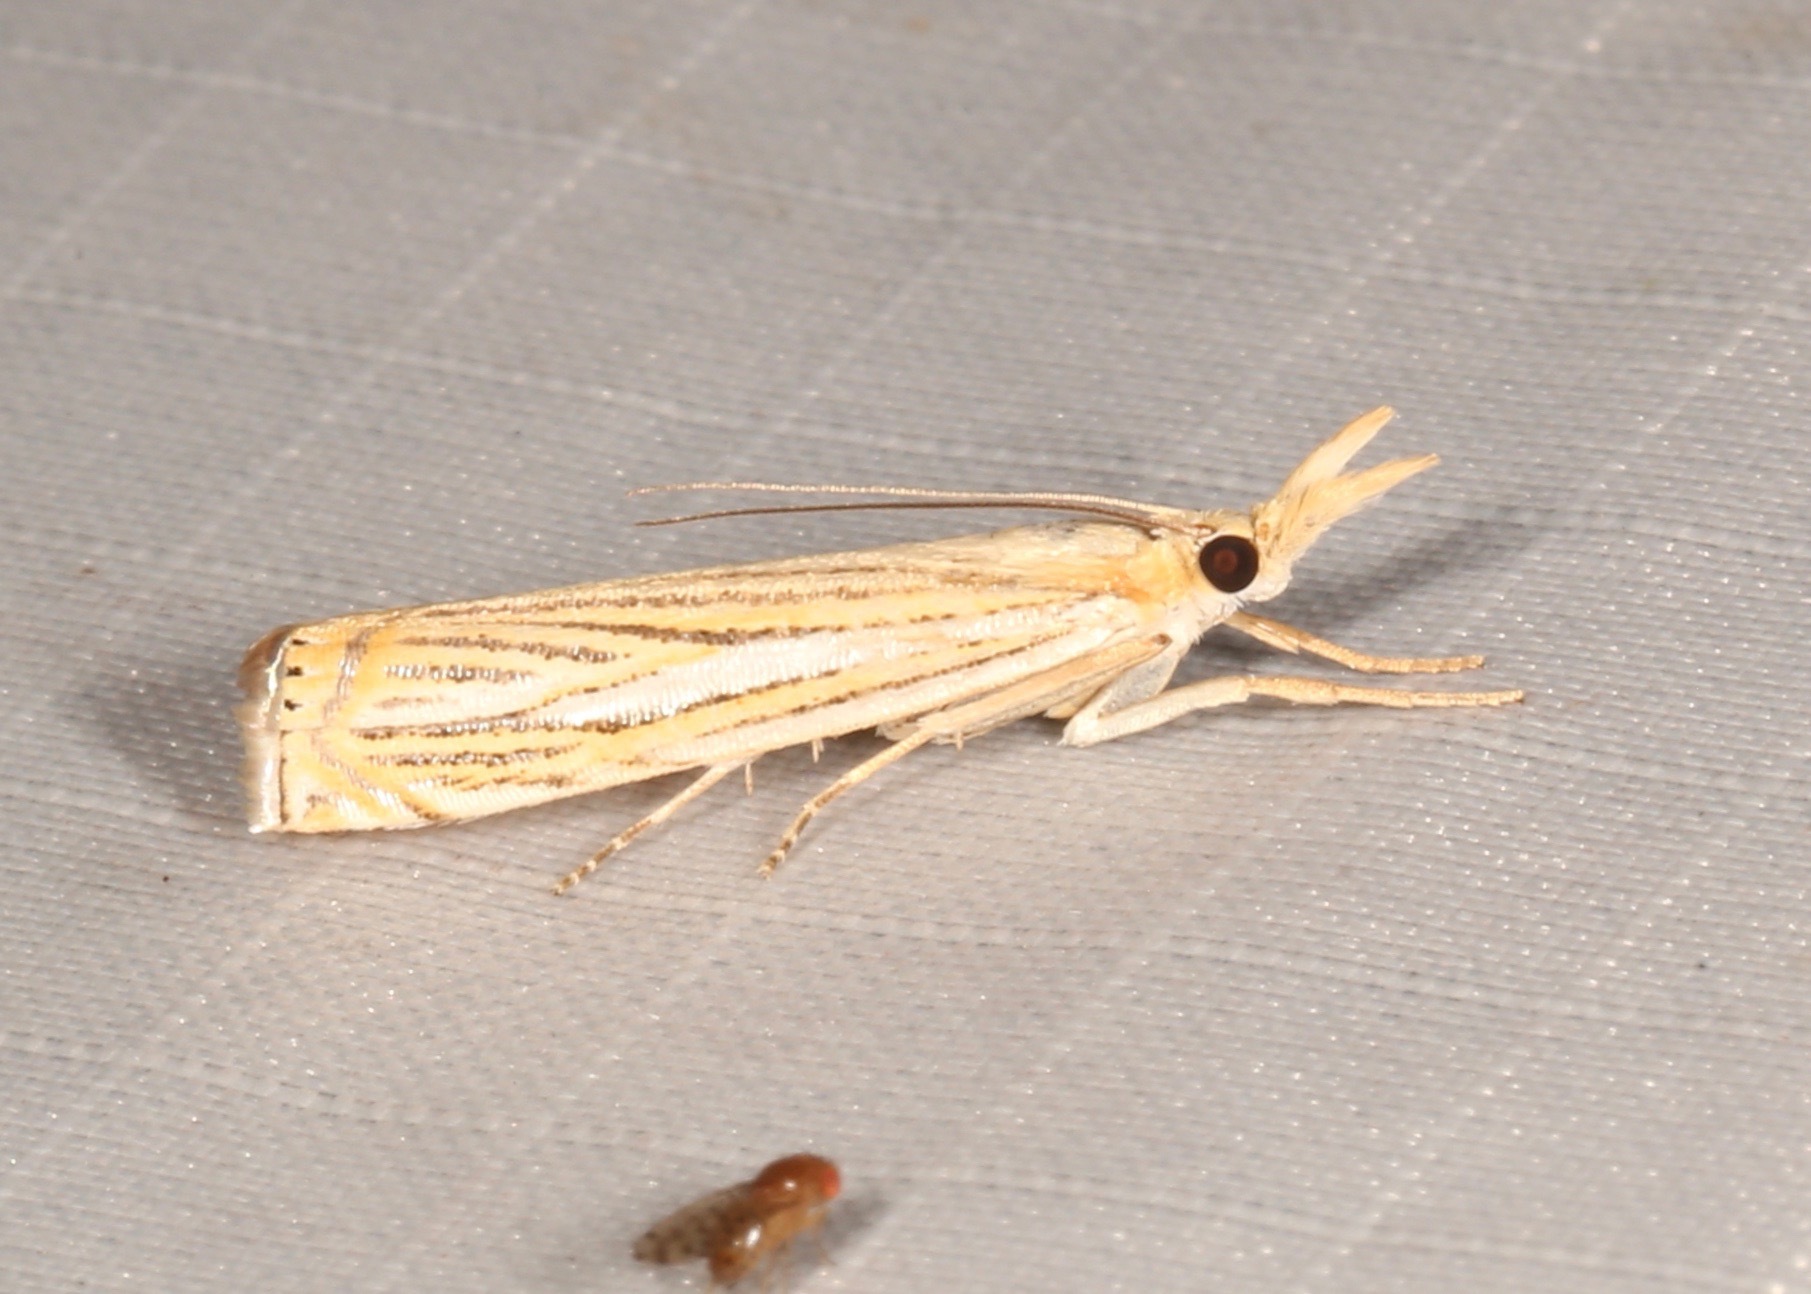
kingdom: Animalia
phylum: Arthropoda
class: Insecta
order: Lepidoptera
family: Crambidae
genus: Crambus
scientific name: Crambus multilinellus
